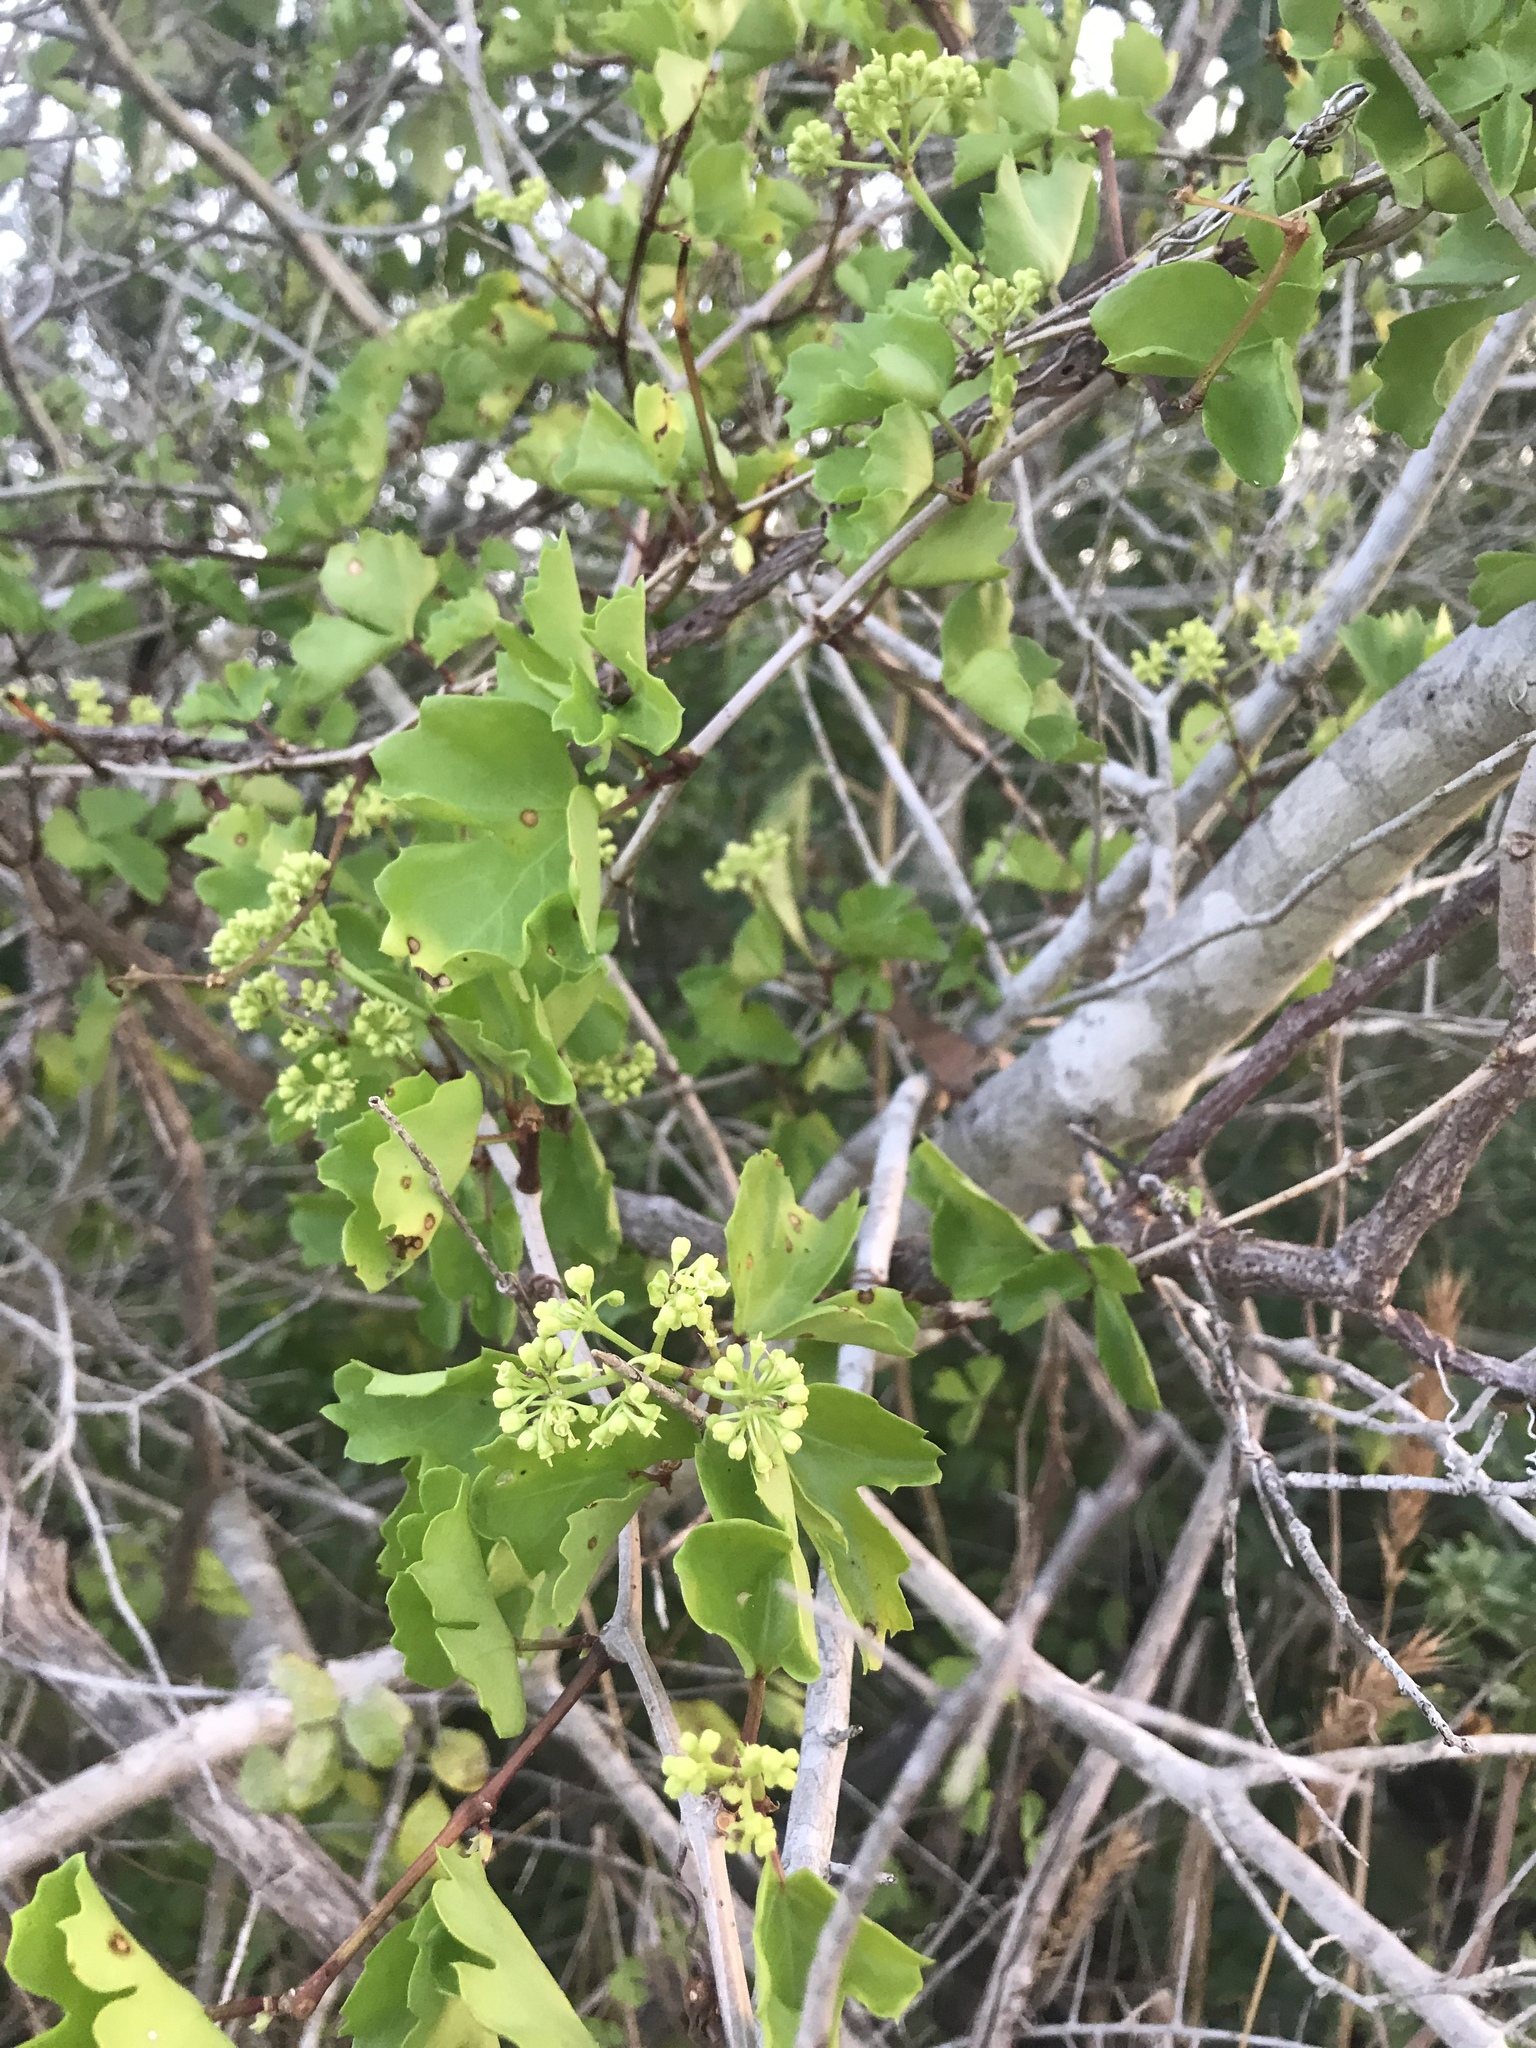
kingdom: Plantae
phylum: Tracheophyta
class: Magnoliopsida
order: Vitales
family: Vitaceae
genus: Cissus
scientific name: Cissus trifoliata
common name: Vine-sorrel
